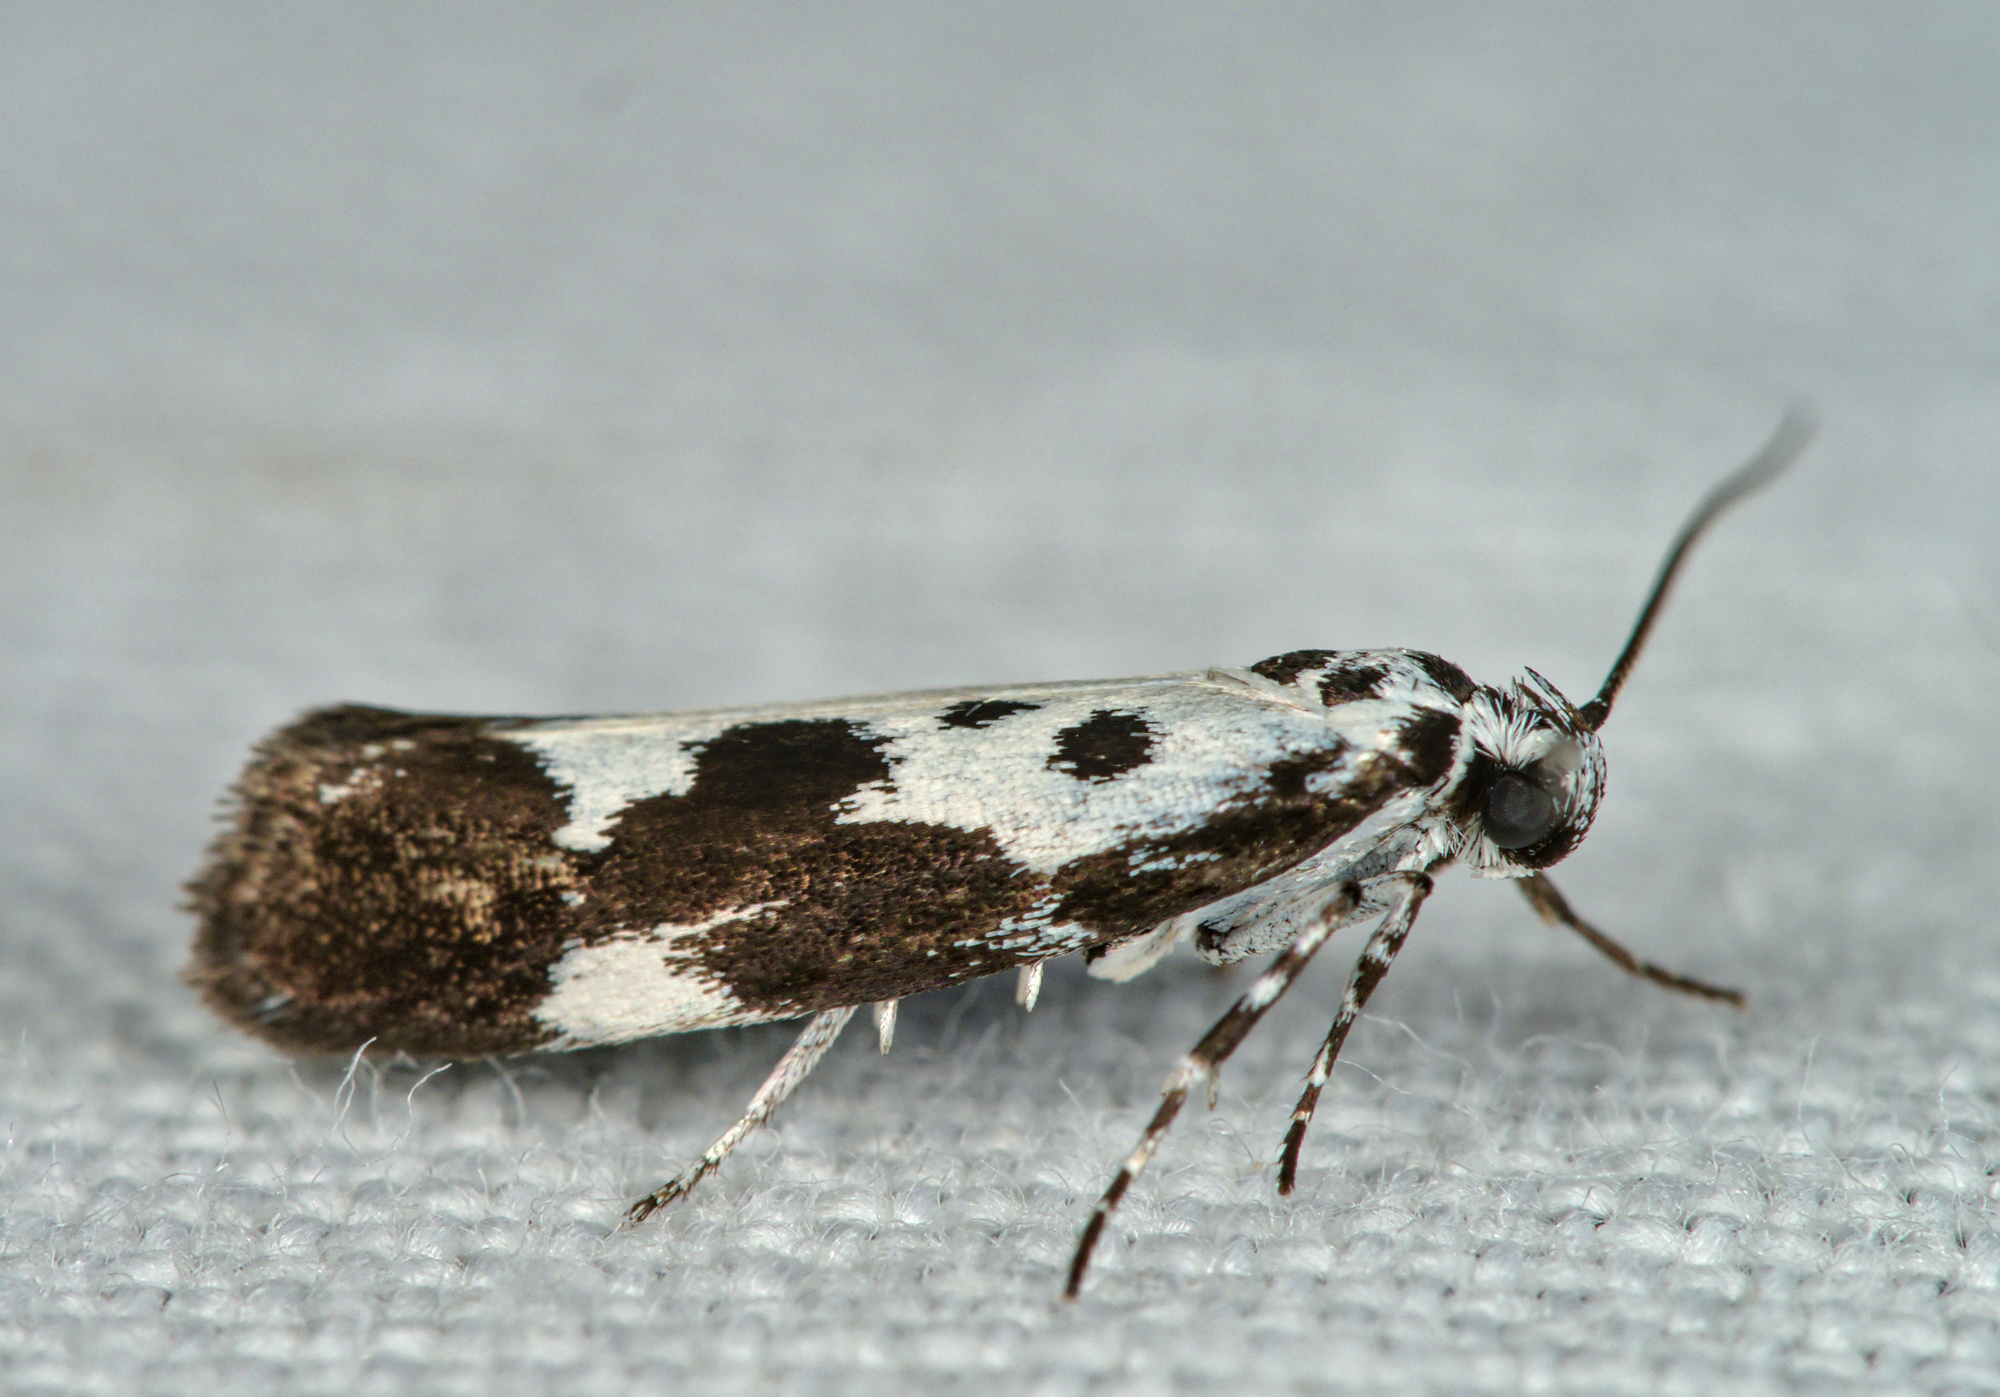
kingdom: Animalia
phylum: Arthropoda
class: Insecta
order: Lepidoptera
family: Ethmiidae
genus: Ethmia
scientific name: Ethmia quadrillella
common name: Comfrey ermel
